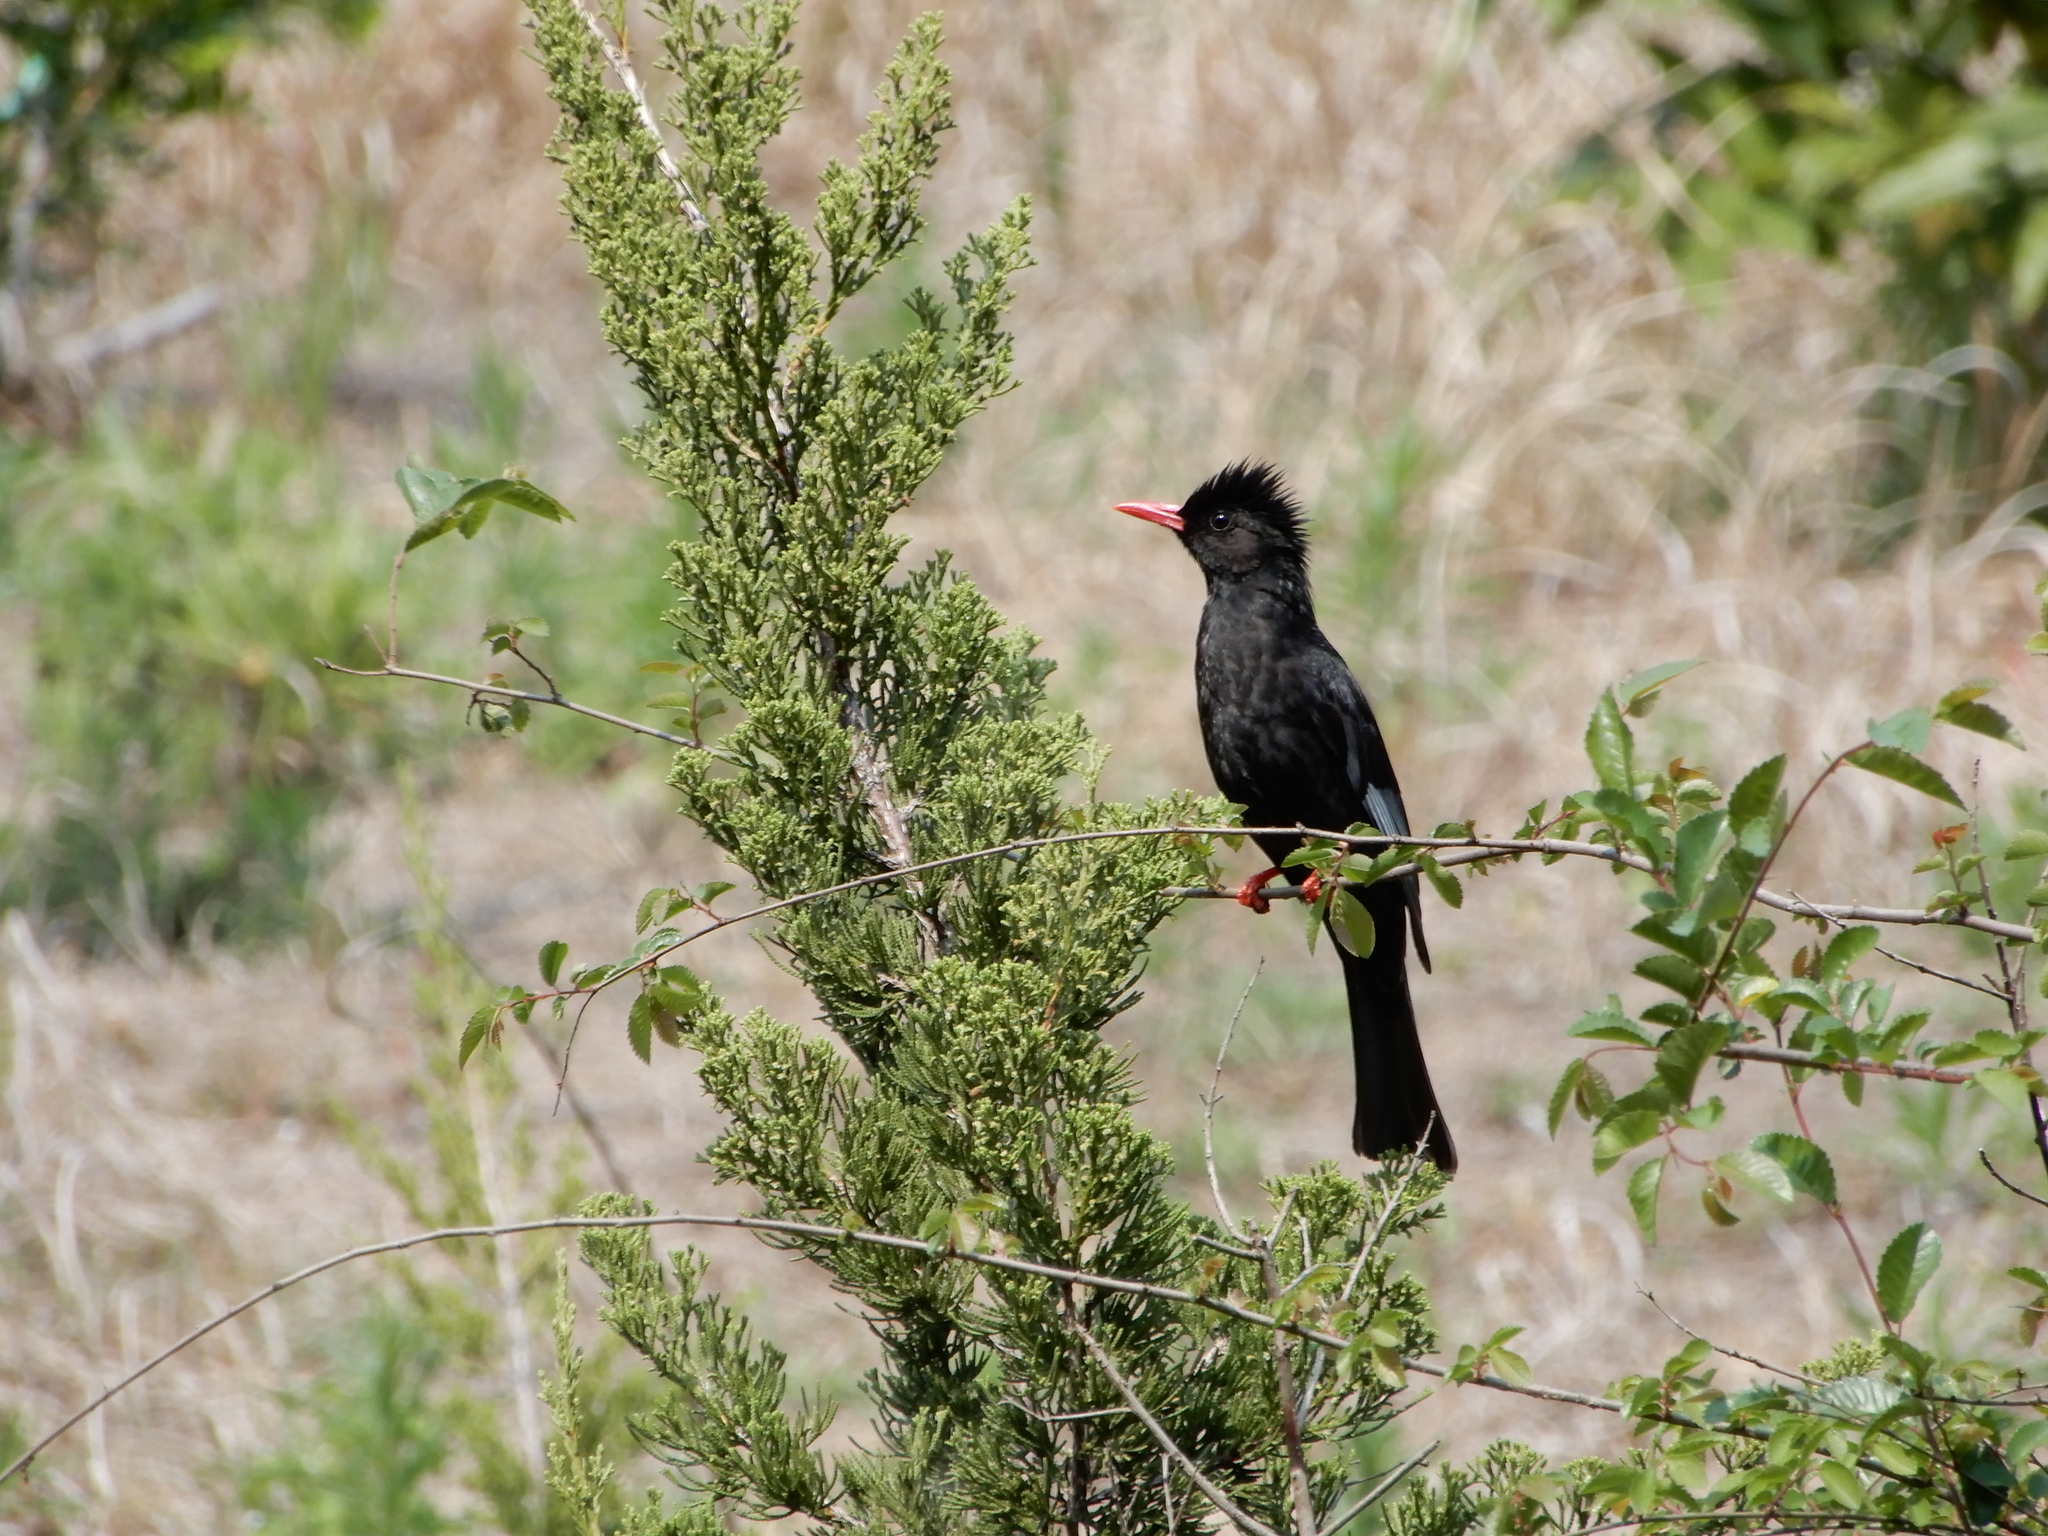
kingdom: Animalia
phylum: Chordata
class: Aves
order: Passeriformes
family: Pycnonotidae
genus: Hypsipetes
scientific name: Hypsipetes leucocephalus
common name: Black bulbul
